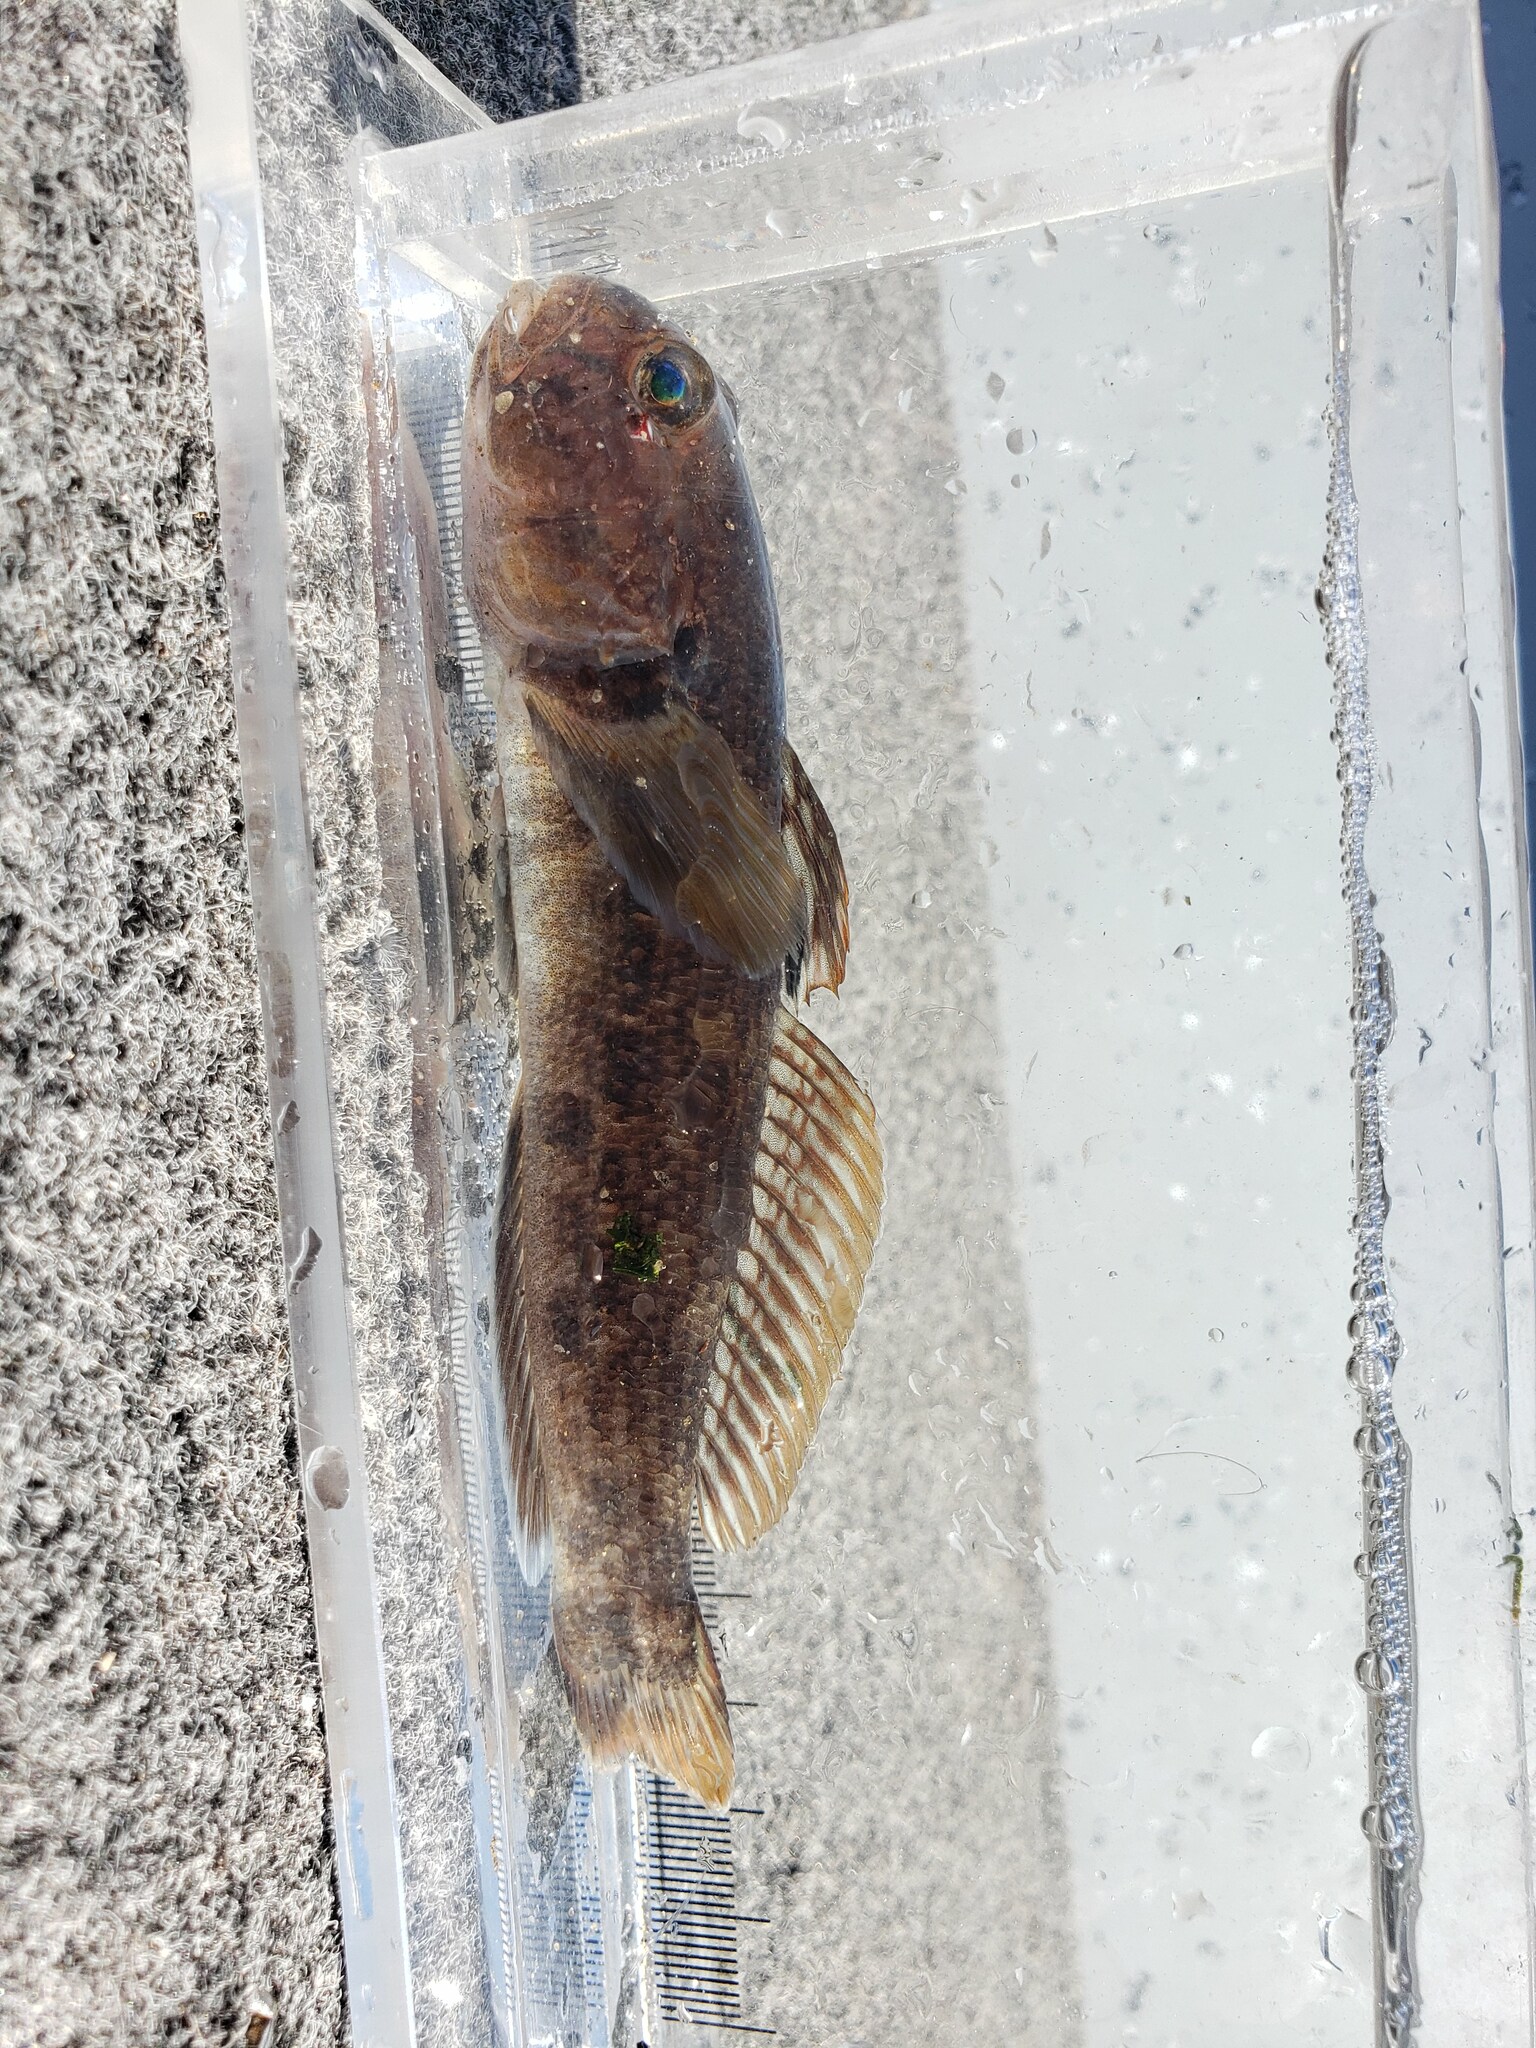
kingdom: Animalia
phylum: Chordata
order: Perciformes
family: Gobiidae
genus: Neogobius
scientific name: Neogobius melanostomus
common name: Round goby
